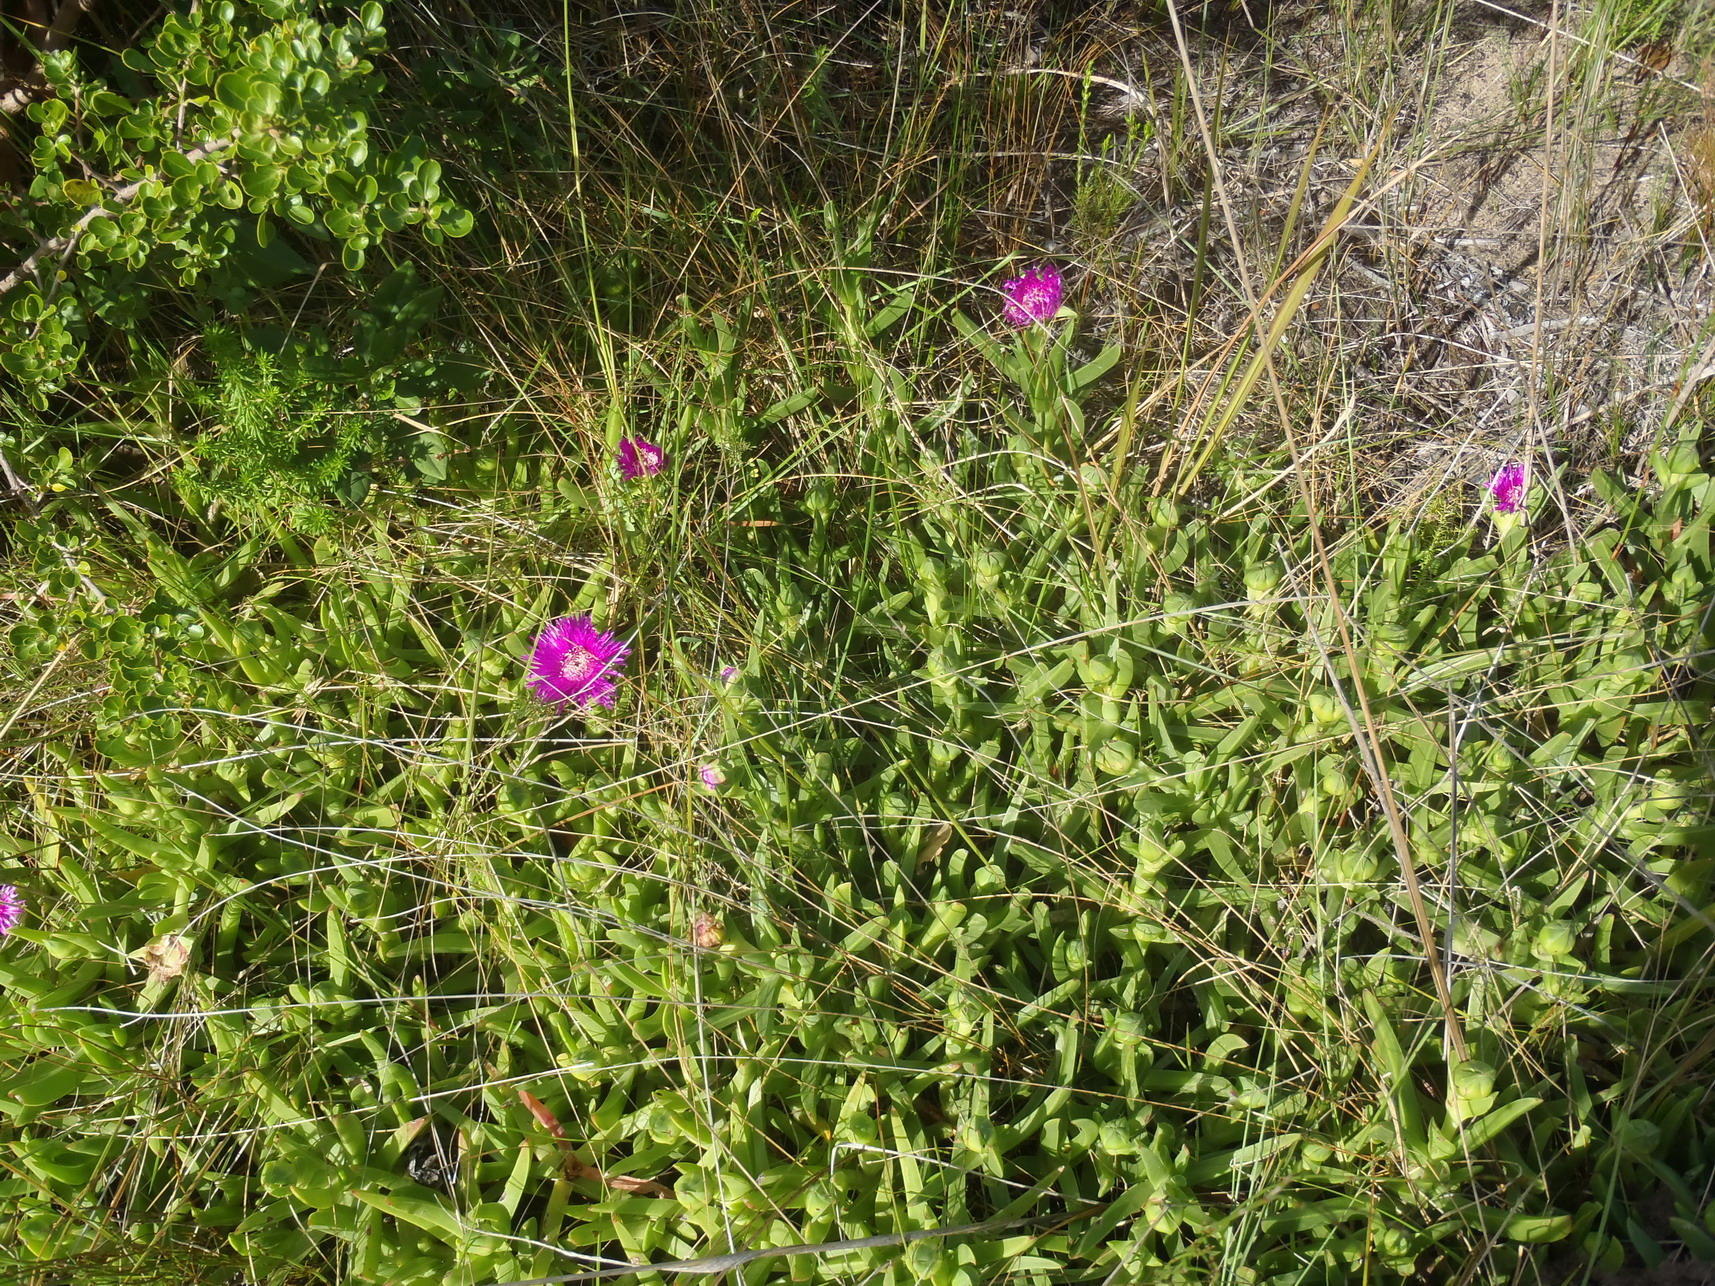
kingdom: Plantae
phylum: Tracheophyta
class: Magnoliopsida
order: Caryophyllales
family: Aizoaceae
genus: Carpobrotus
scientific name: Carpobrotus deliciosus
